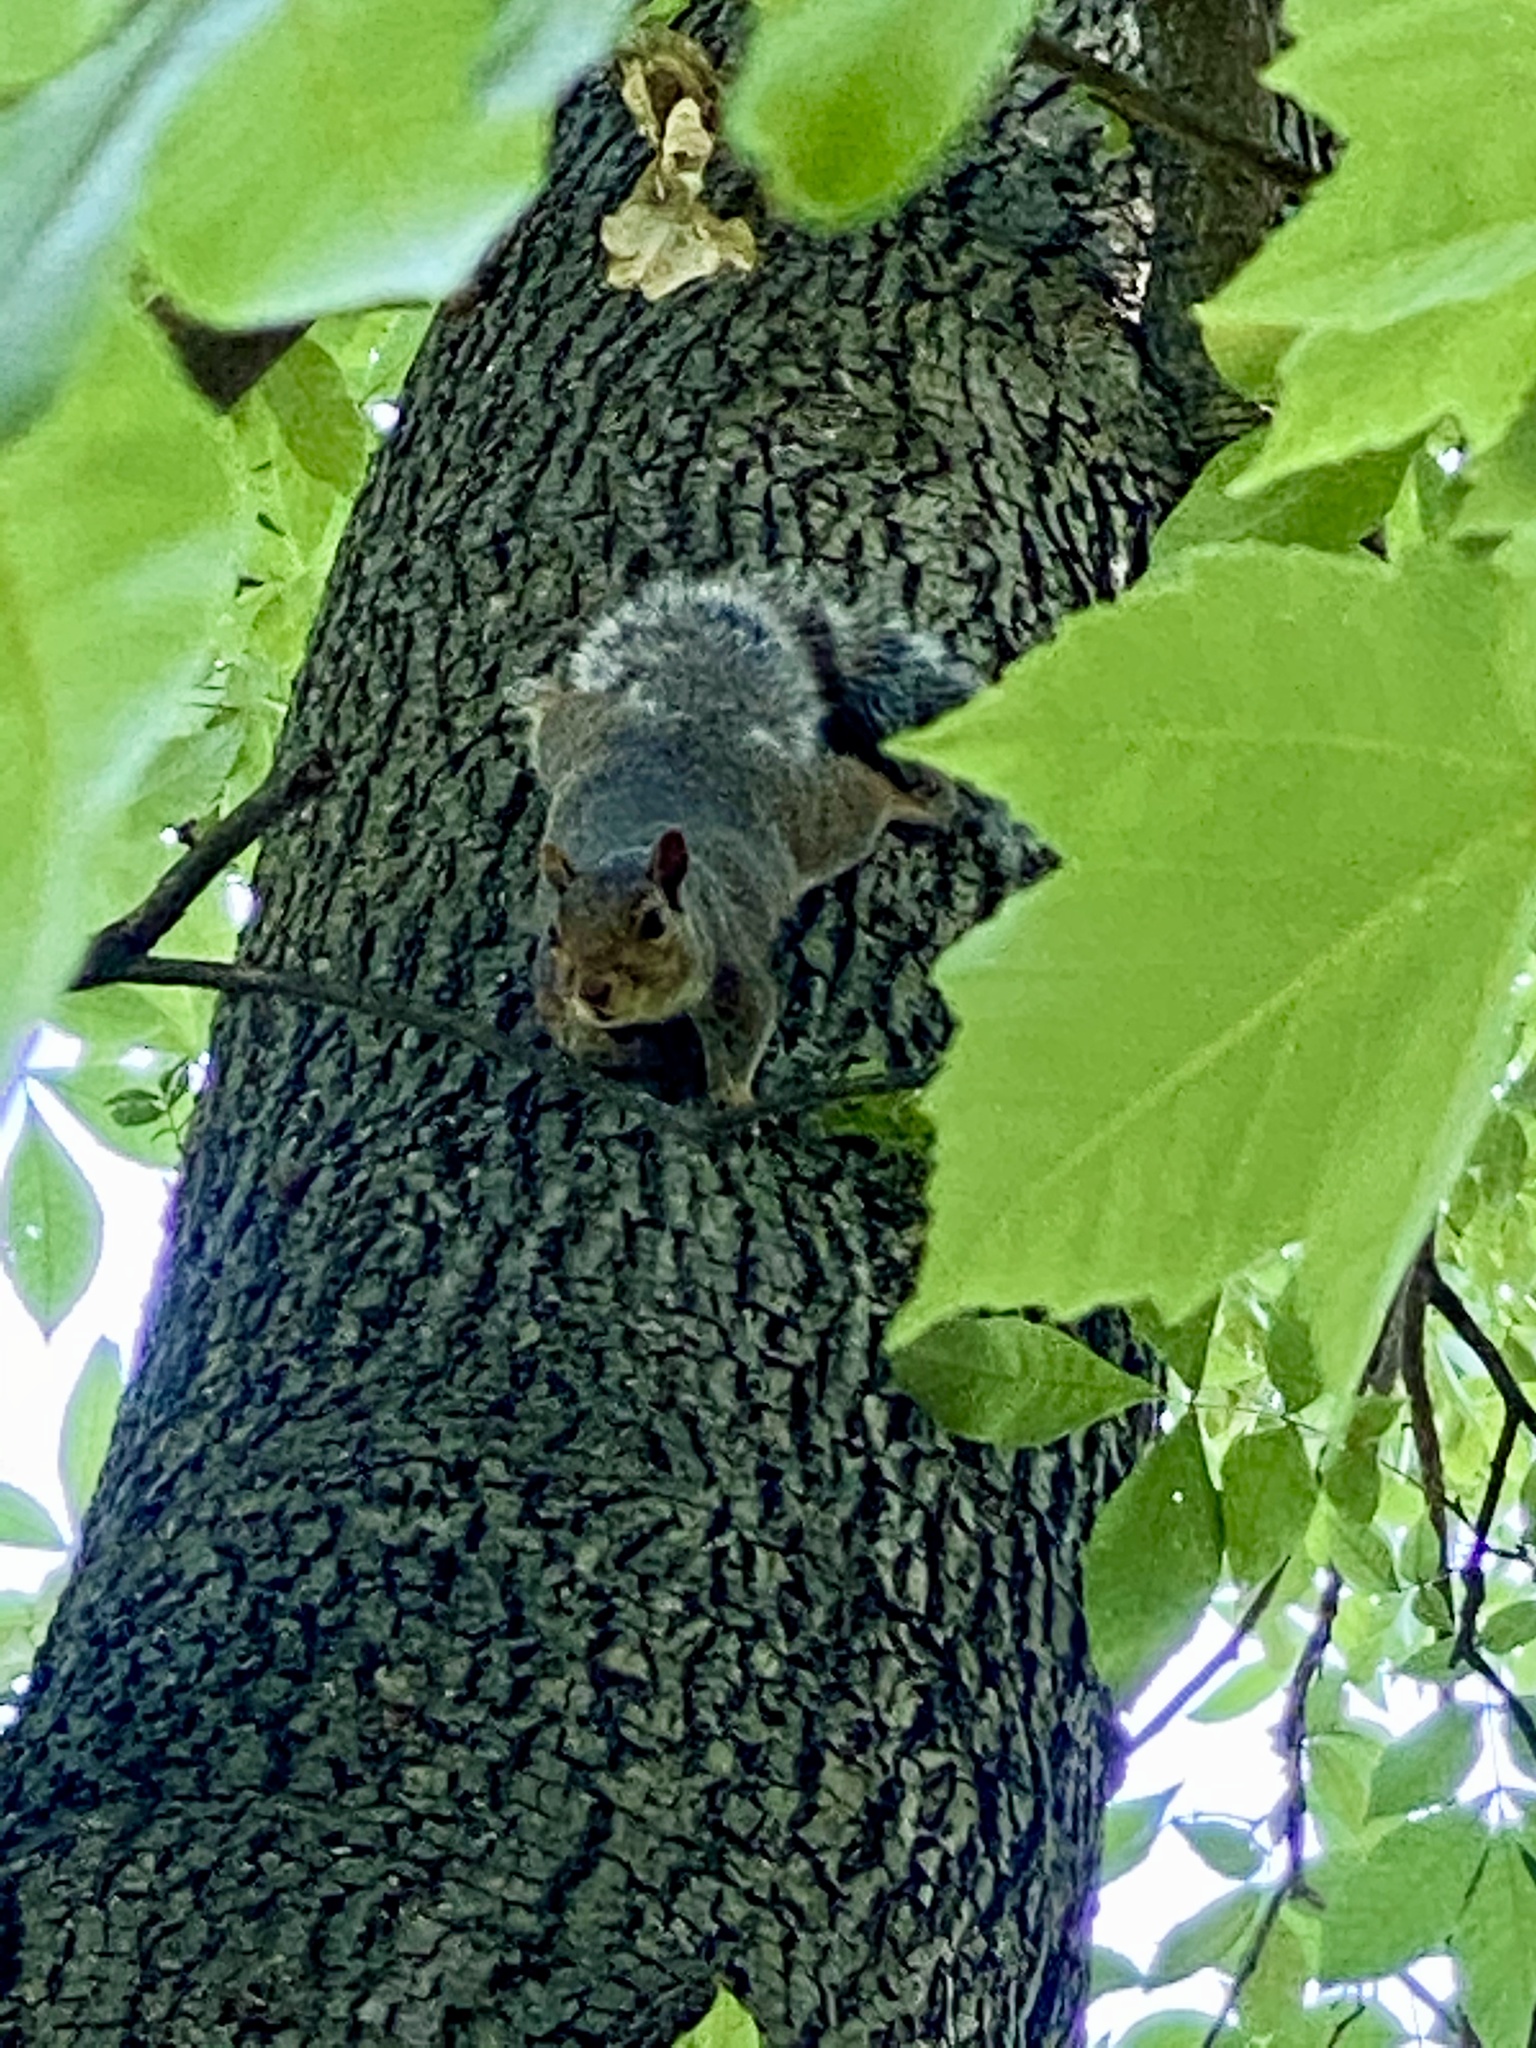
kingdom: Animalia
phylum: Chordata
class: Mammalia
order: Rodentia
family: Sciuridae
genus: Sciurus
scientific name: Sciurus carolinensis
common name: Eastern gray squirrel
